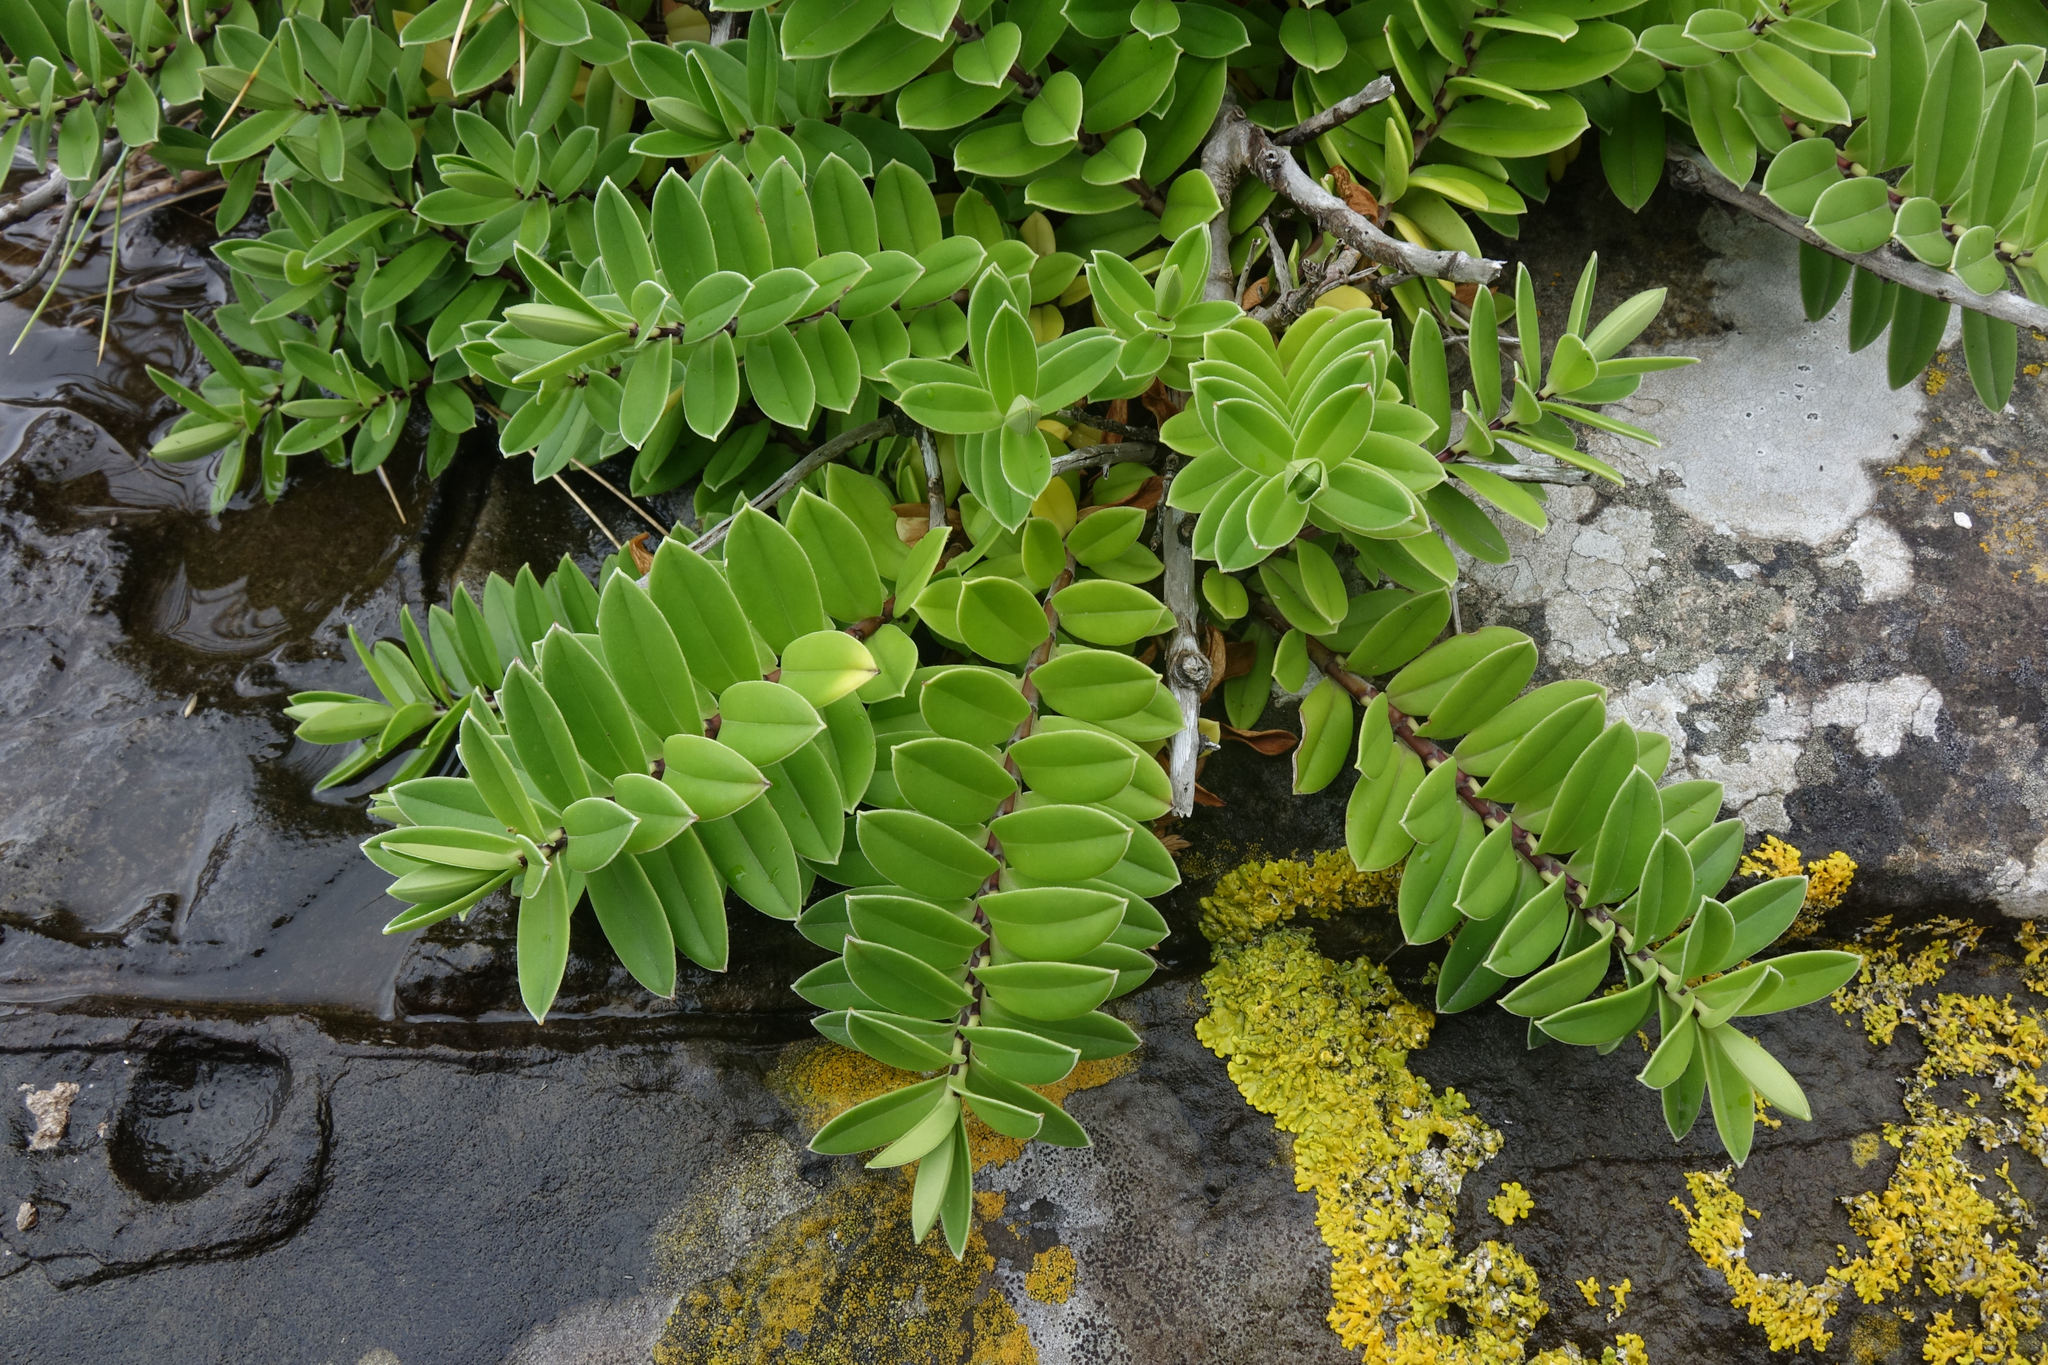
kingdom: Plantae
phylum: Tracheophyta
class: Magnoliopsida
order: Lamiales
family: Plantaginaceae
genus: Veronica
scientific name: Veronica elliptica
